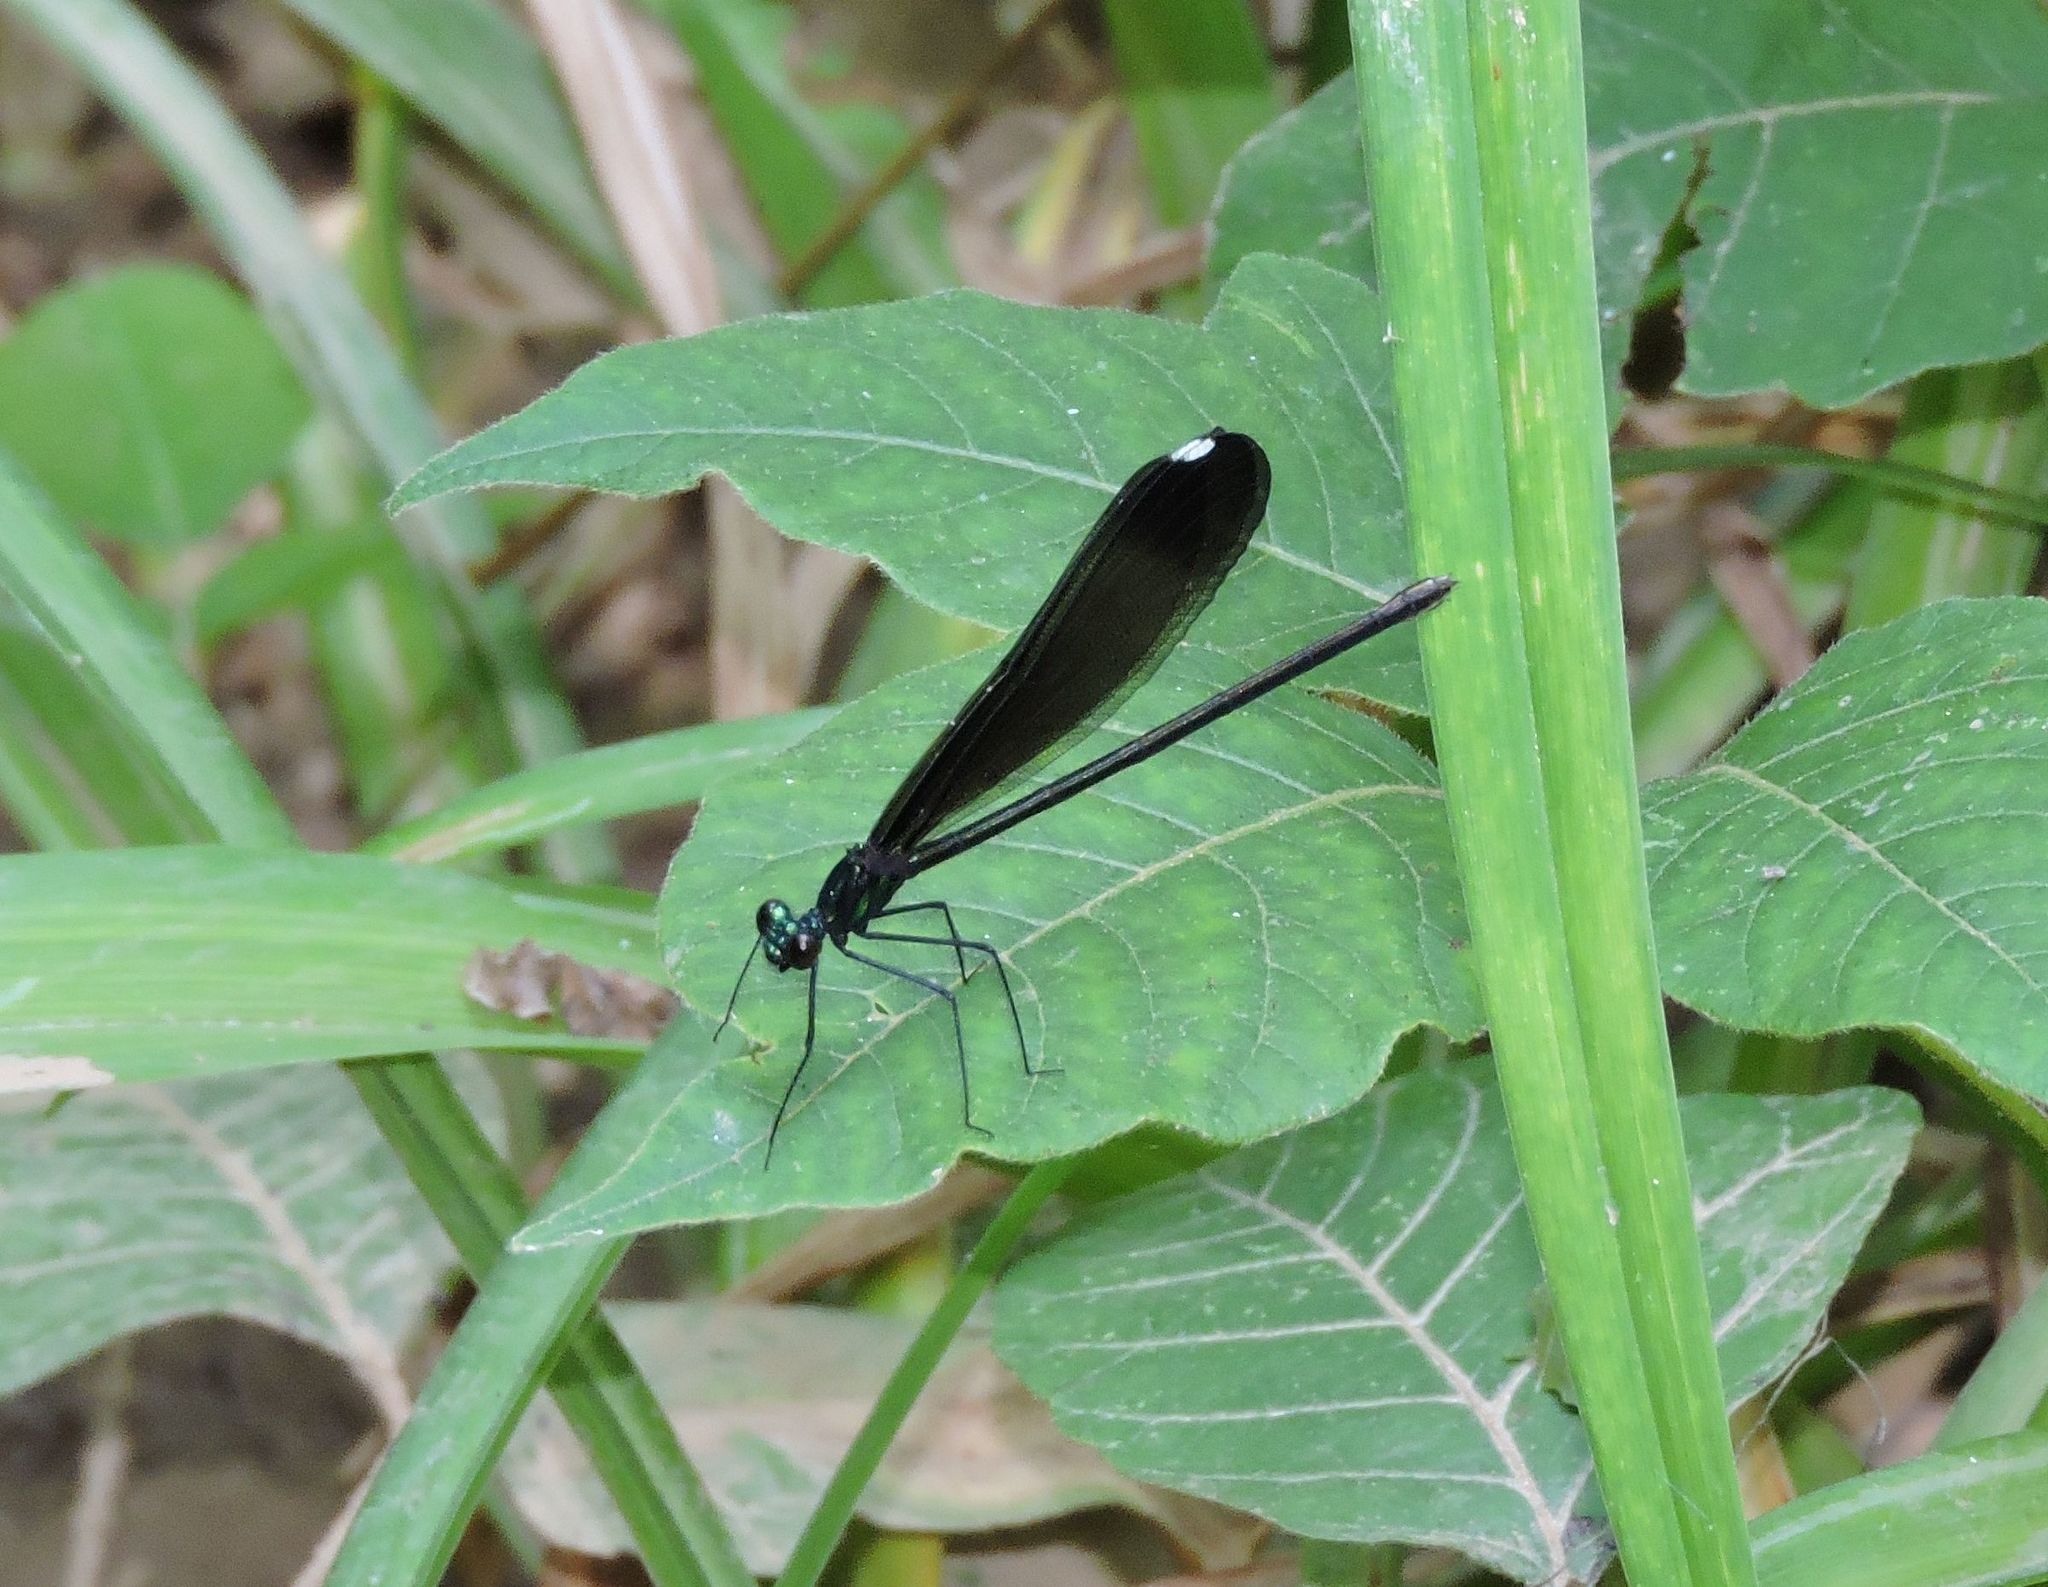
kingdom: Animalia
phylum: Arthropoda
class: Insecta
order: Odonata
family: Calopterygidae
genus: Calopteryx
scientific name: Calopteryx maculata
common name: Ebony jewelwing
